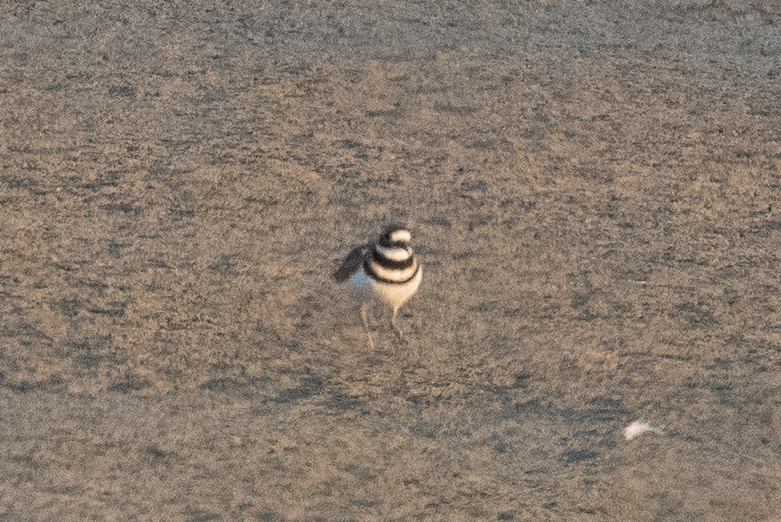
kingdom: Animalia
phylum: Chordata
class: Aves
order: Charadriiformes
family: Charadriidae
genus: Charadrius
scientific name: Charadrius vociferus
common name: Killdeer
